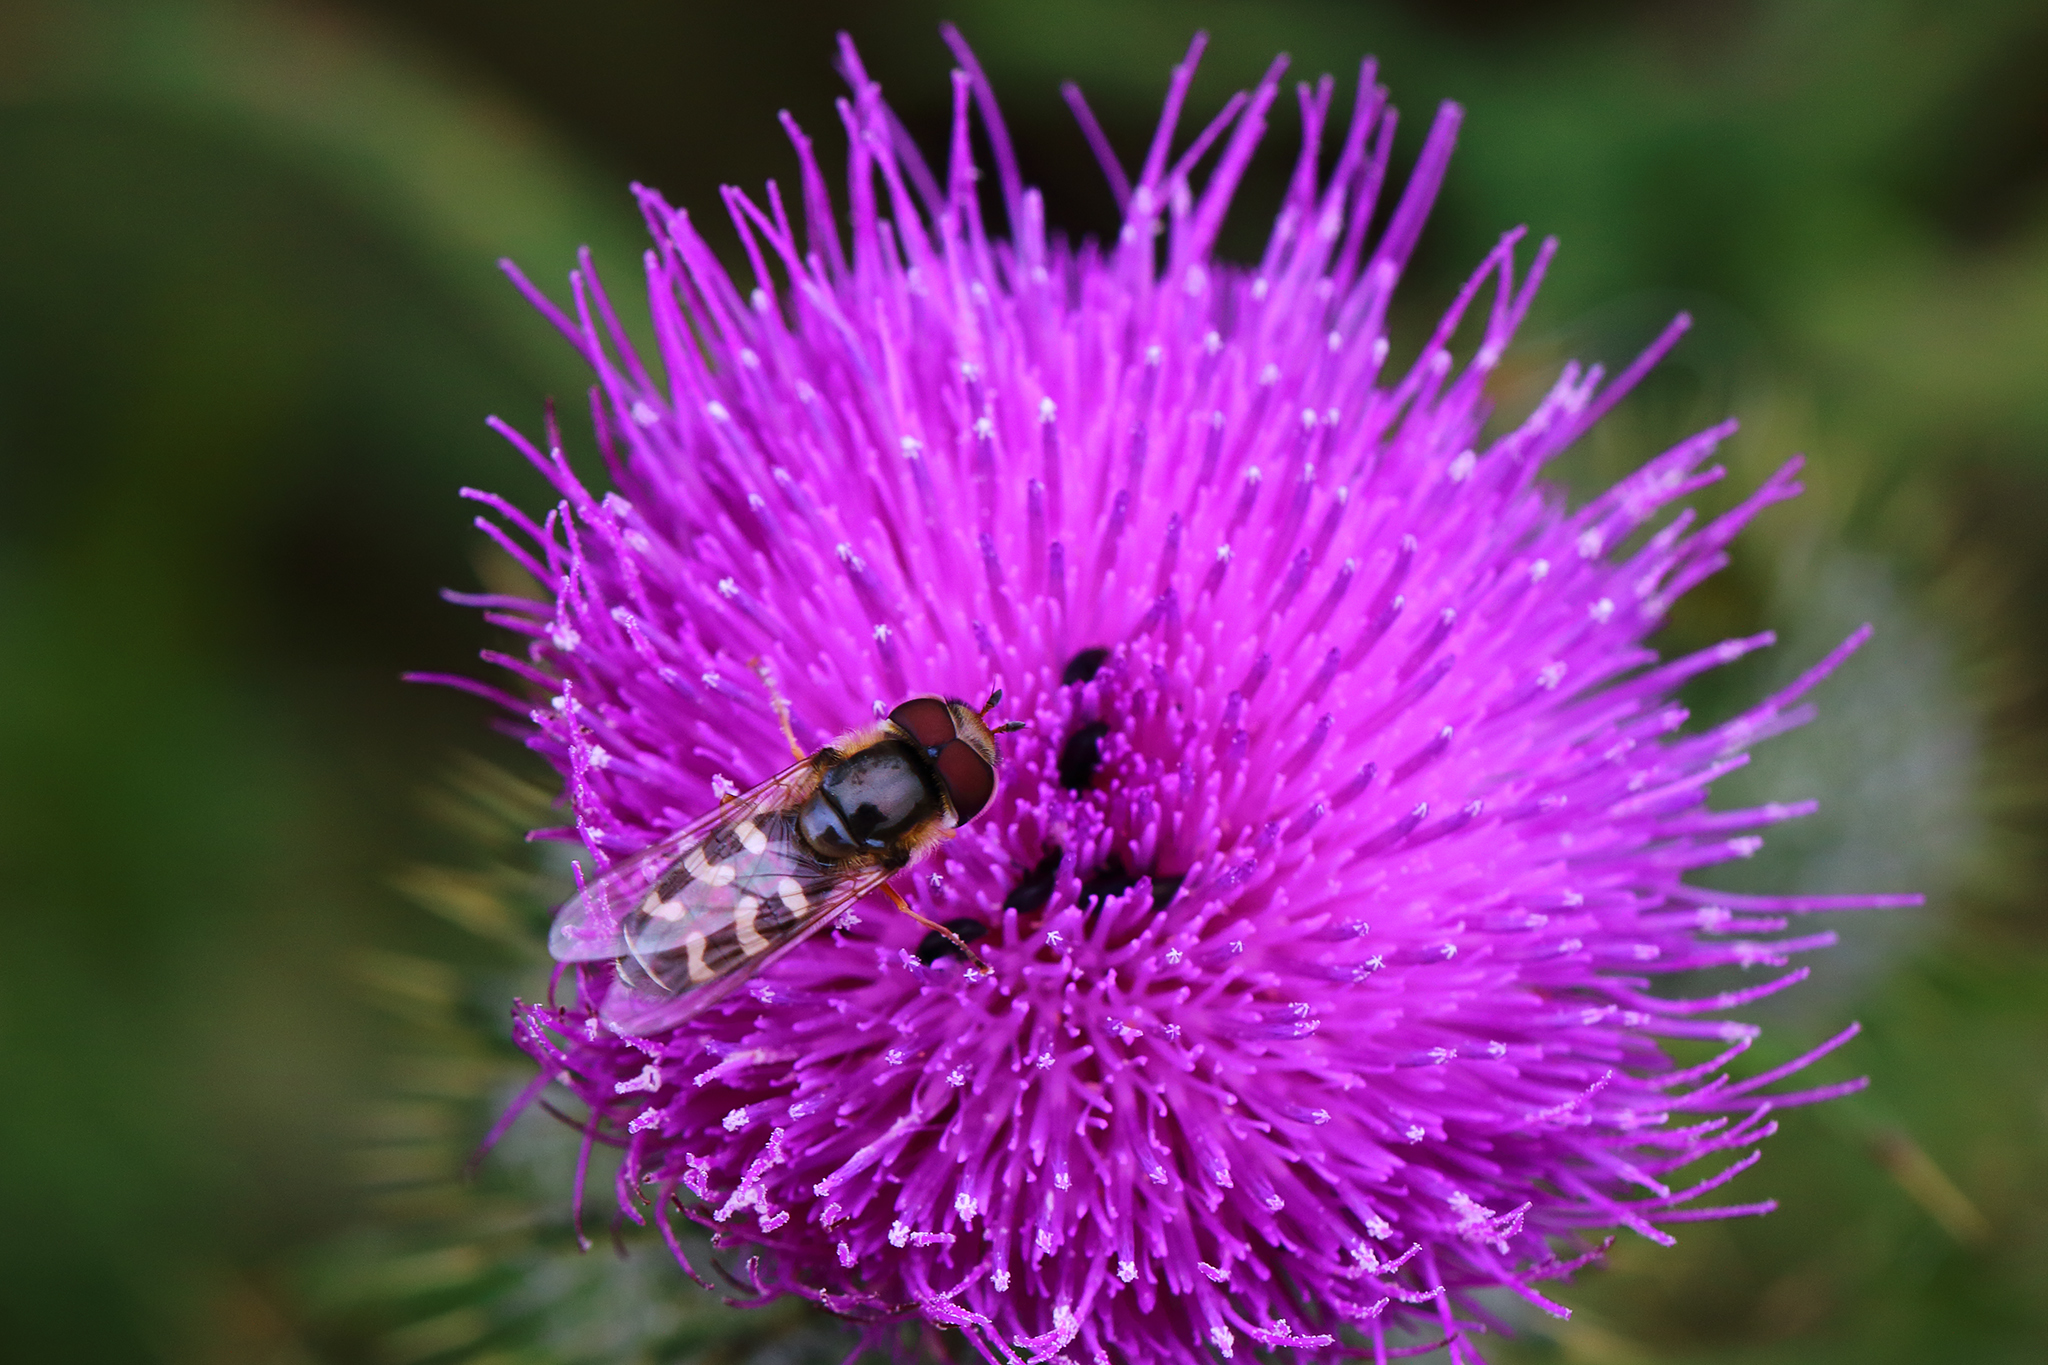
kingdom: Animalia
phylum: Arthropoda
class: Insecta
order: Diptera
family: Syrphidae
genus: Scaeva
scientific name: Scaeva pyrastri
